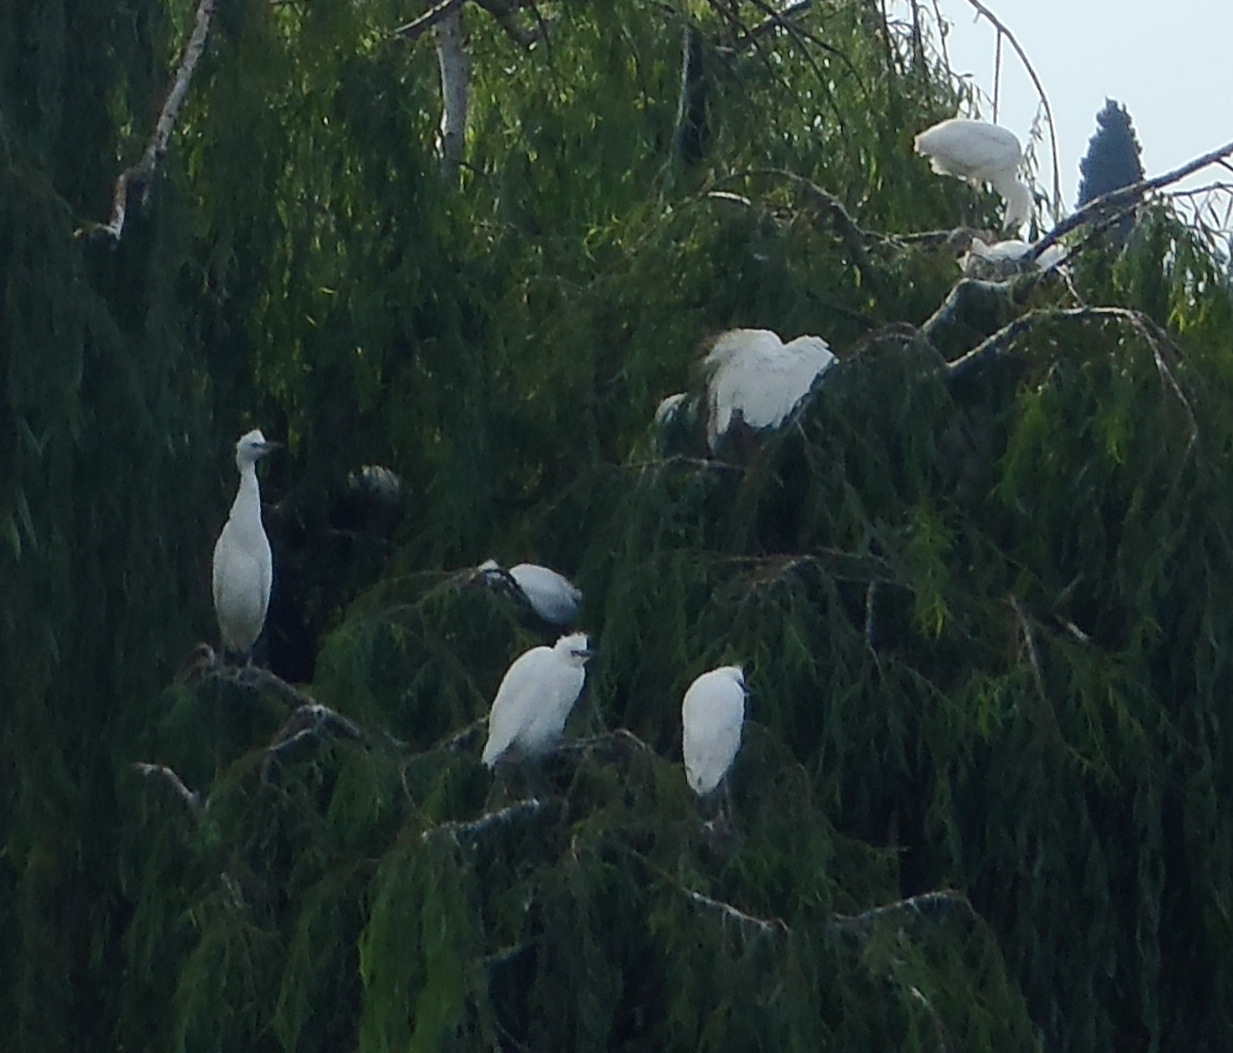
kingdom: Animalia
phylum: Chordata
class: Aves
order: Pelecaniformes
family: Ardeidae
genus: Egretta
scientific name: Egretta garzetta
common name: Little egret
